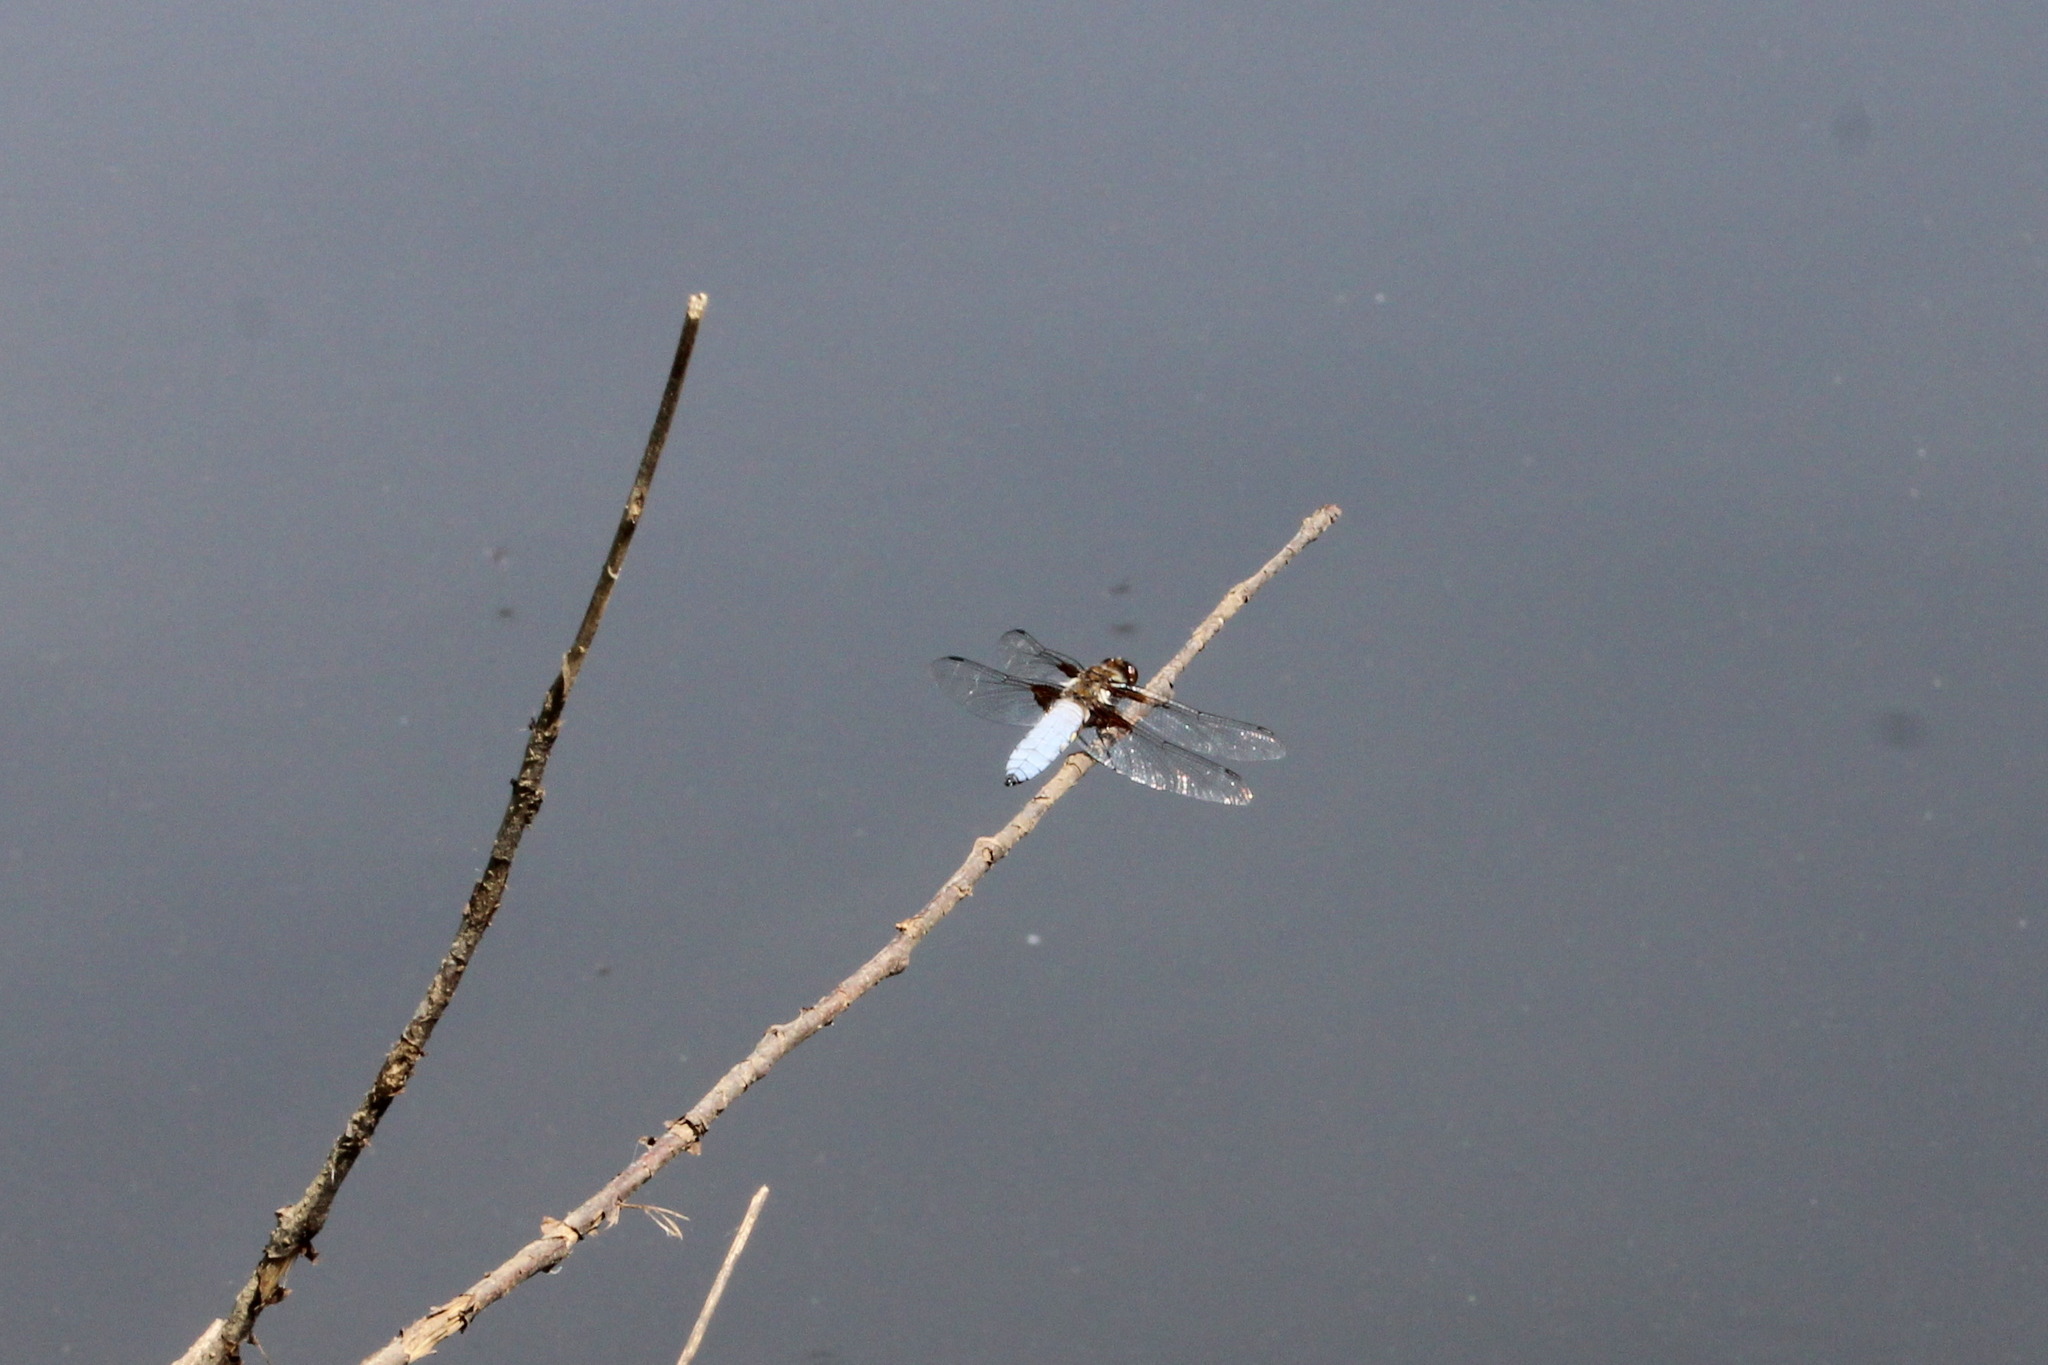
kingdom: Animalia
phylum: Arthropoda
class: Insecta
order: Odonata
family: Libellulidae
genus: Libellula
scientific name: Libellula depressa
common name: Broad-bodied chaser
